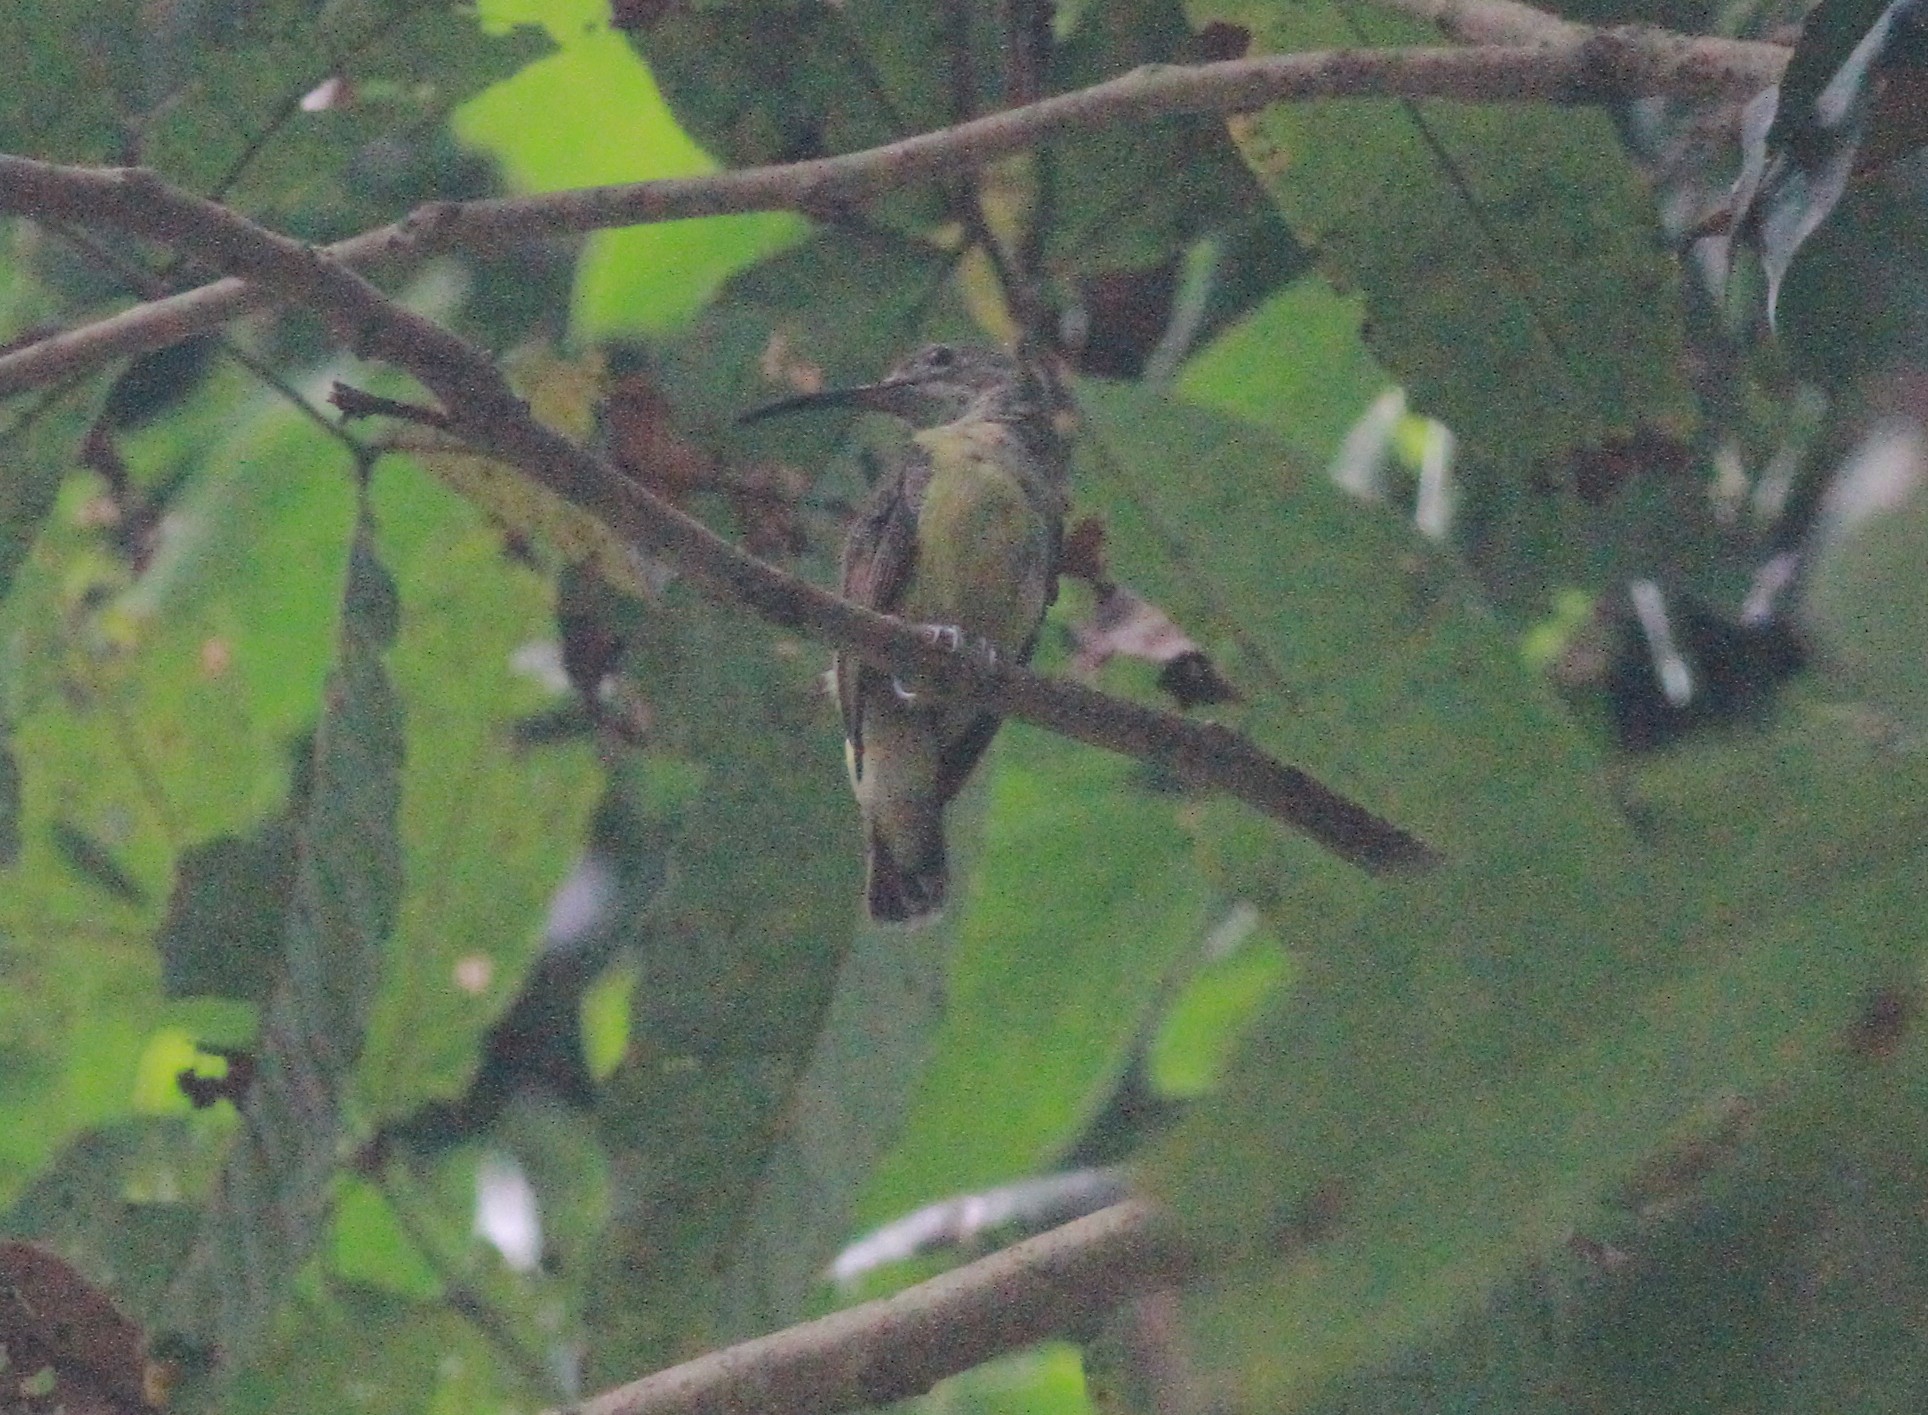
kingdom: Animalia
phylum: Chordata
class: Aves
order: Passeriformes
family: Nectariniidae
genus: Arachnothera
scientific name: Arachnothera longirostra
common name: Little spiderhunter
